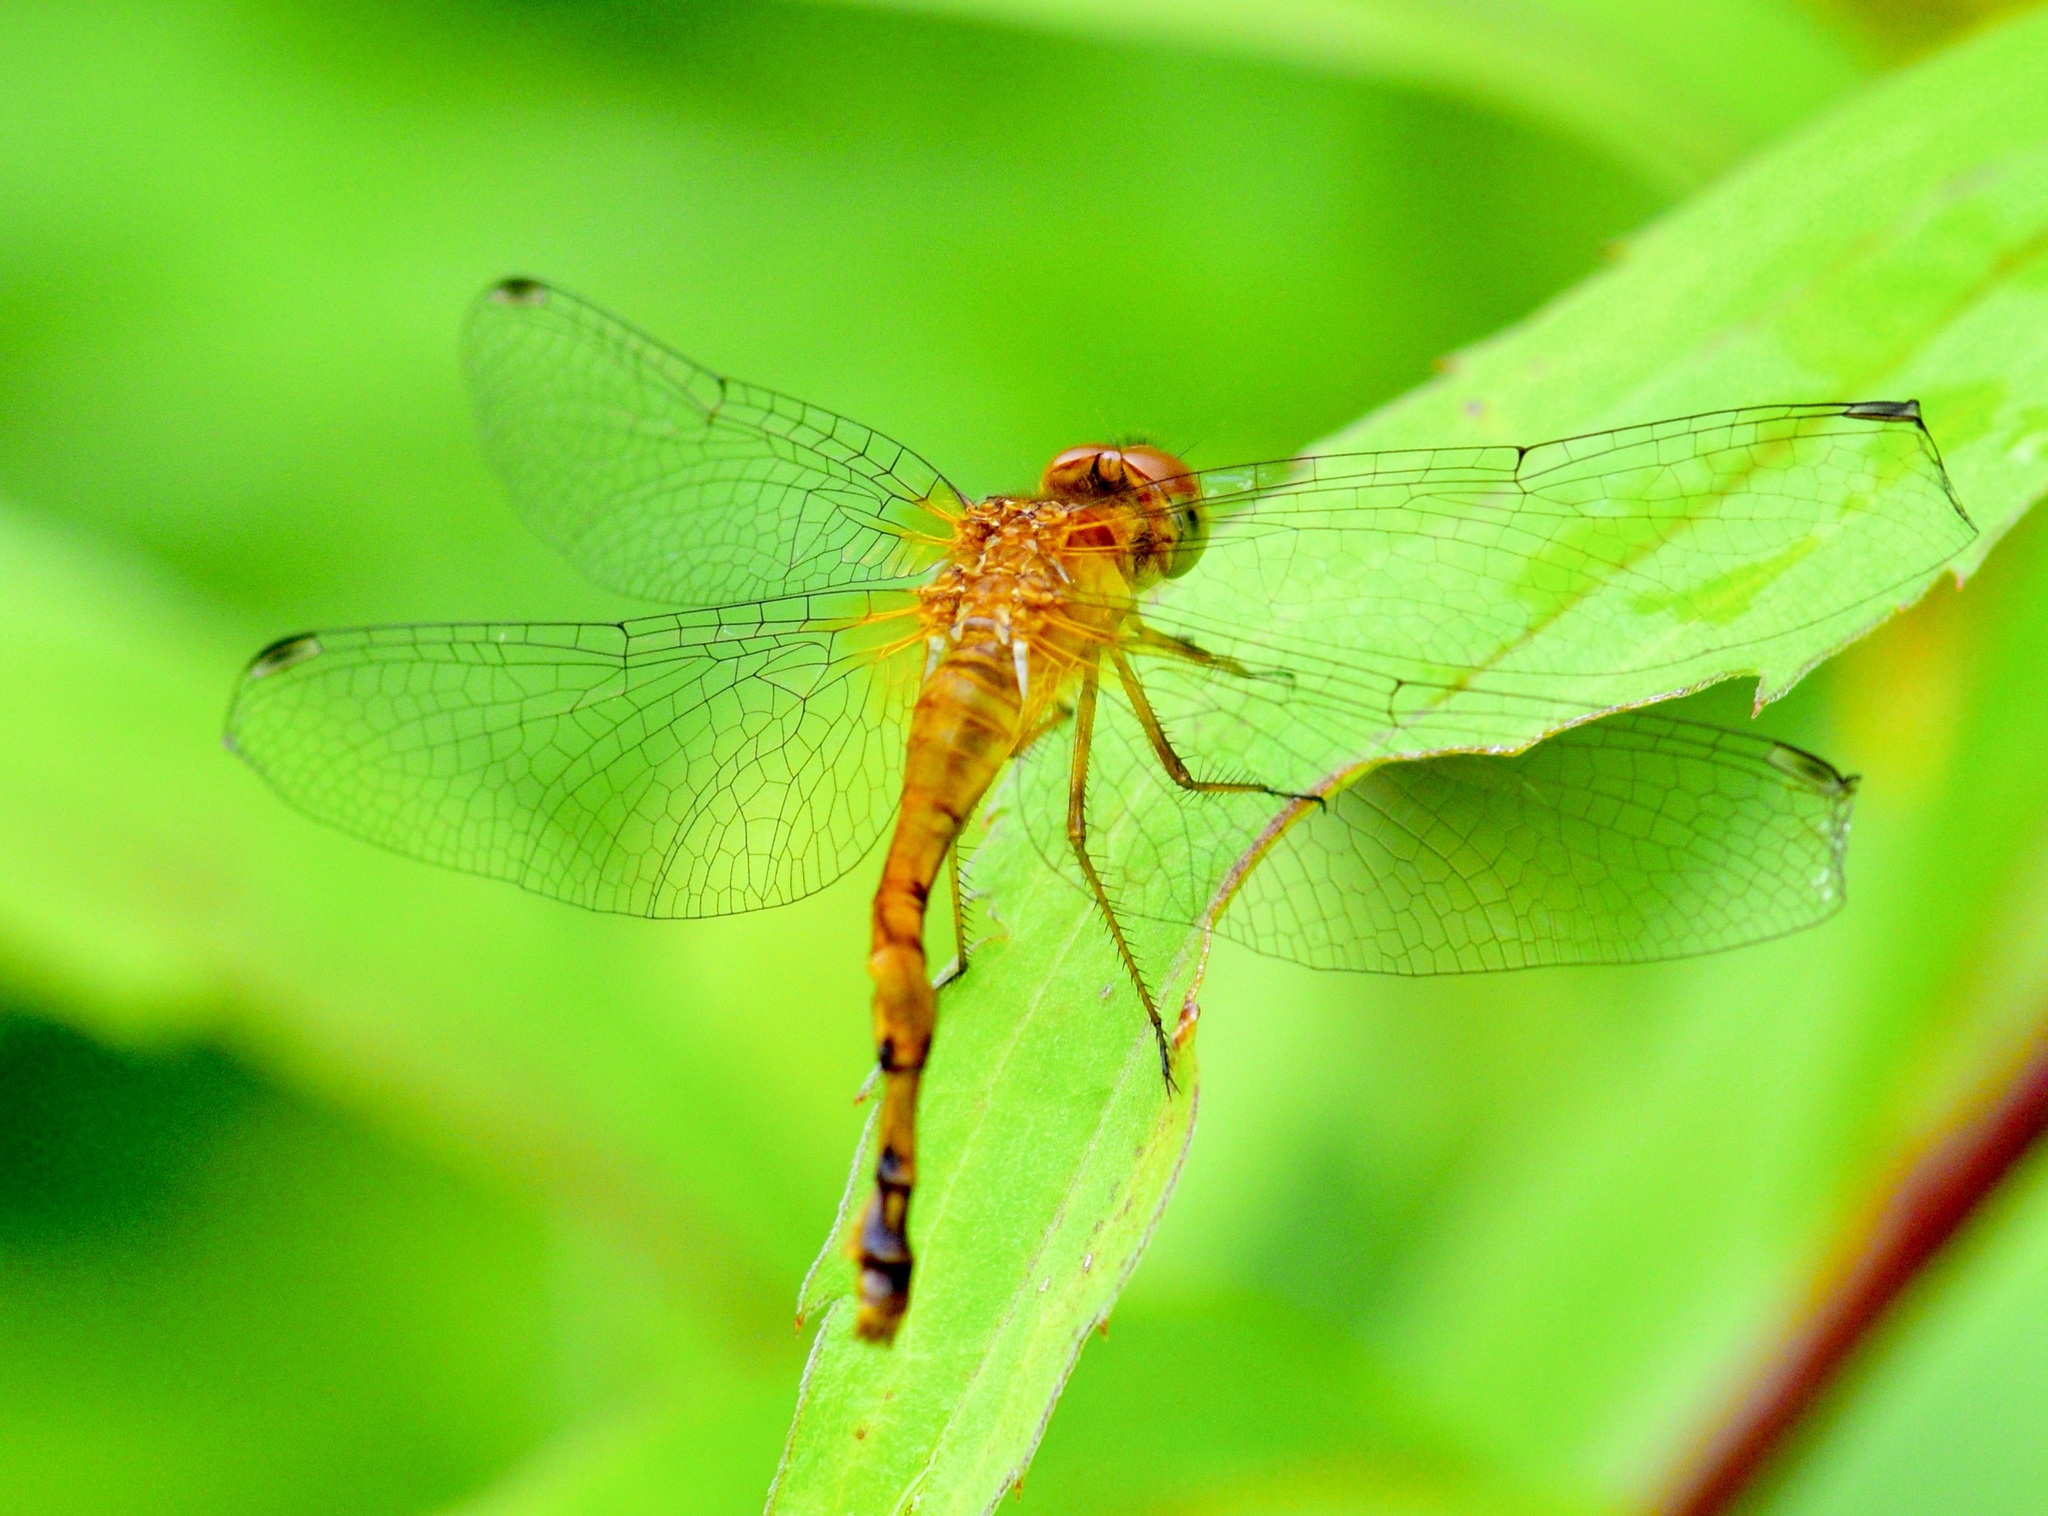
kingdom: Animalia
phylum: Arthropoda
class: Insecta
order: Odonata
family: Libellulidae
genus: Sympetrum
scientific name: Sympetrum vicinum
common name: Autumn meadowhawk
